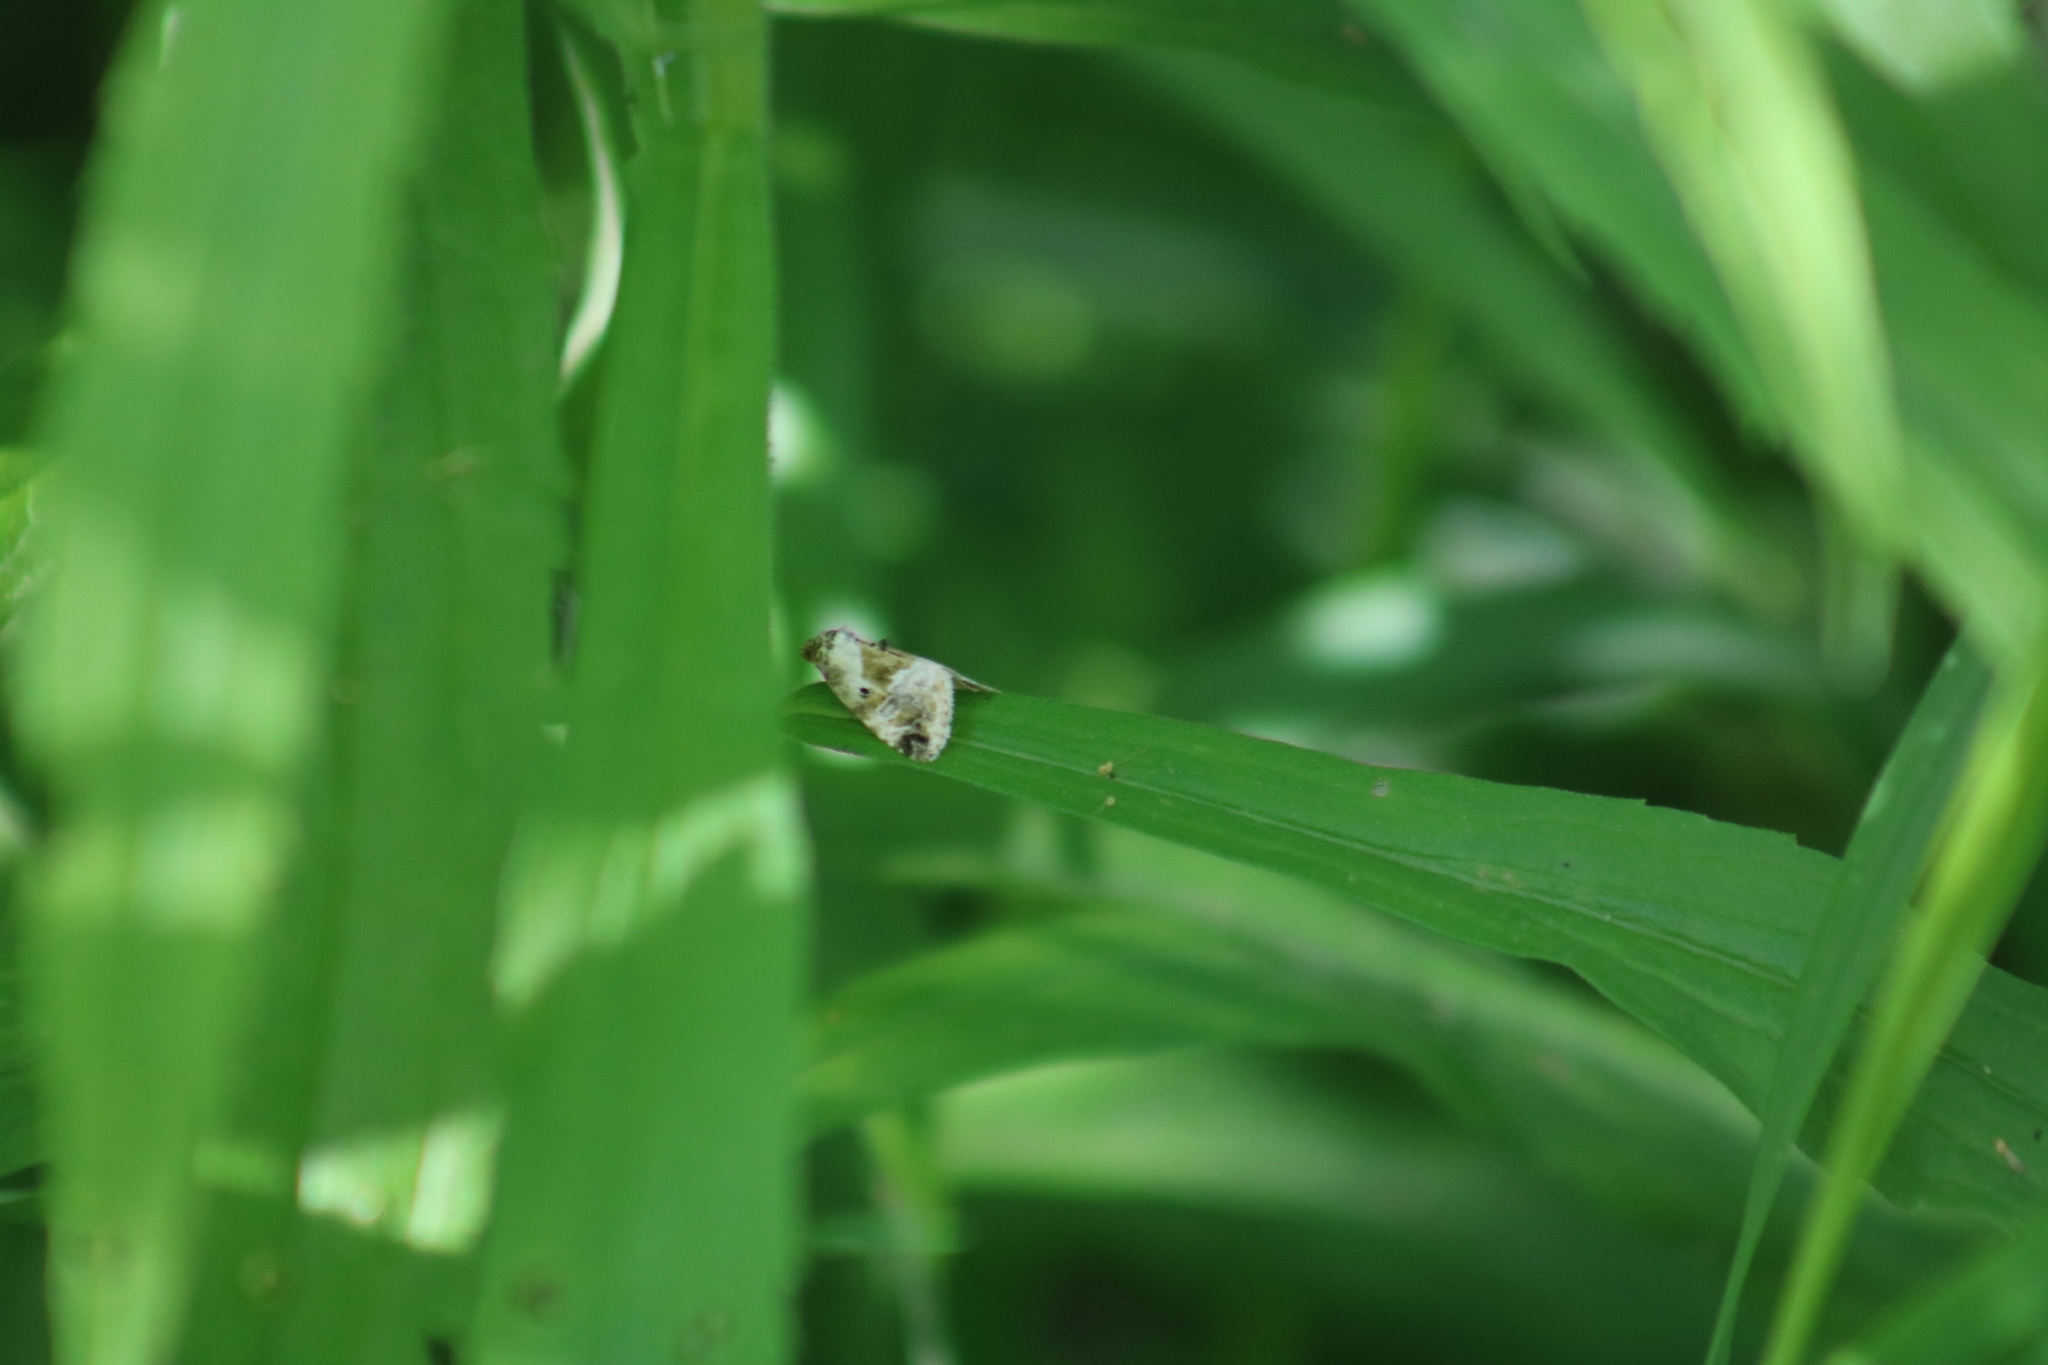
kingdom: Animalia
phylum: Arthropoda
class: Insecta
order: Lepidoptera
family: Noctuidae
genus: Maliattha
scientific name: Maliattha synochitis
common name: Black-dotted glyph
